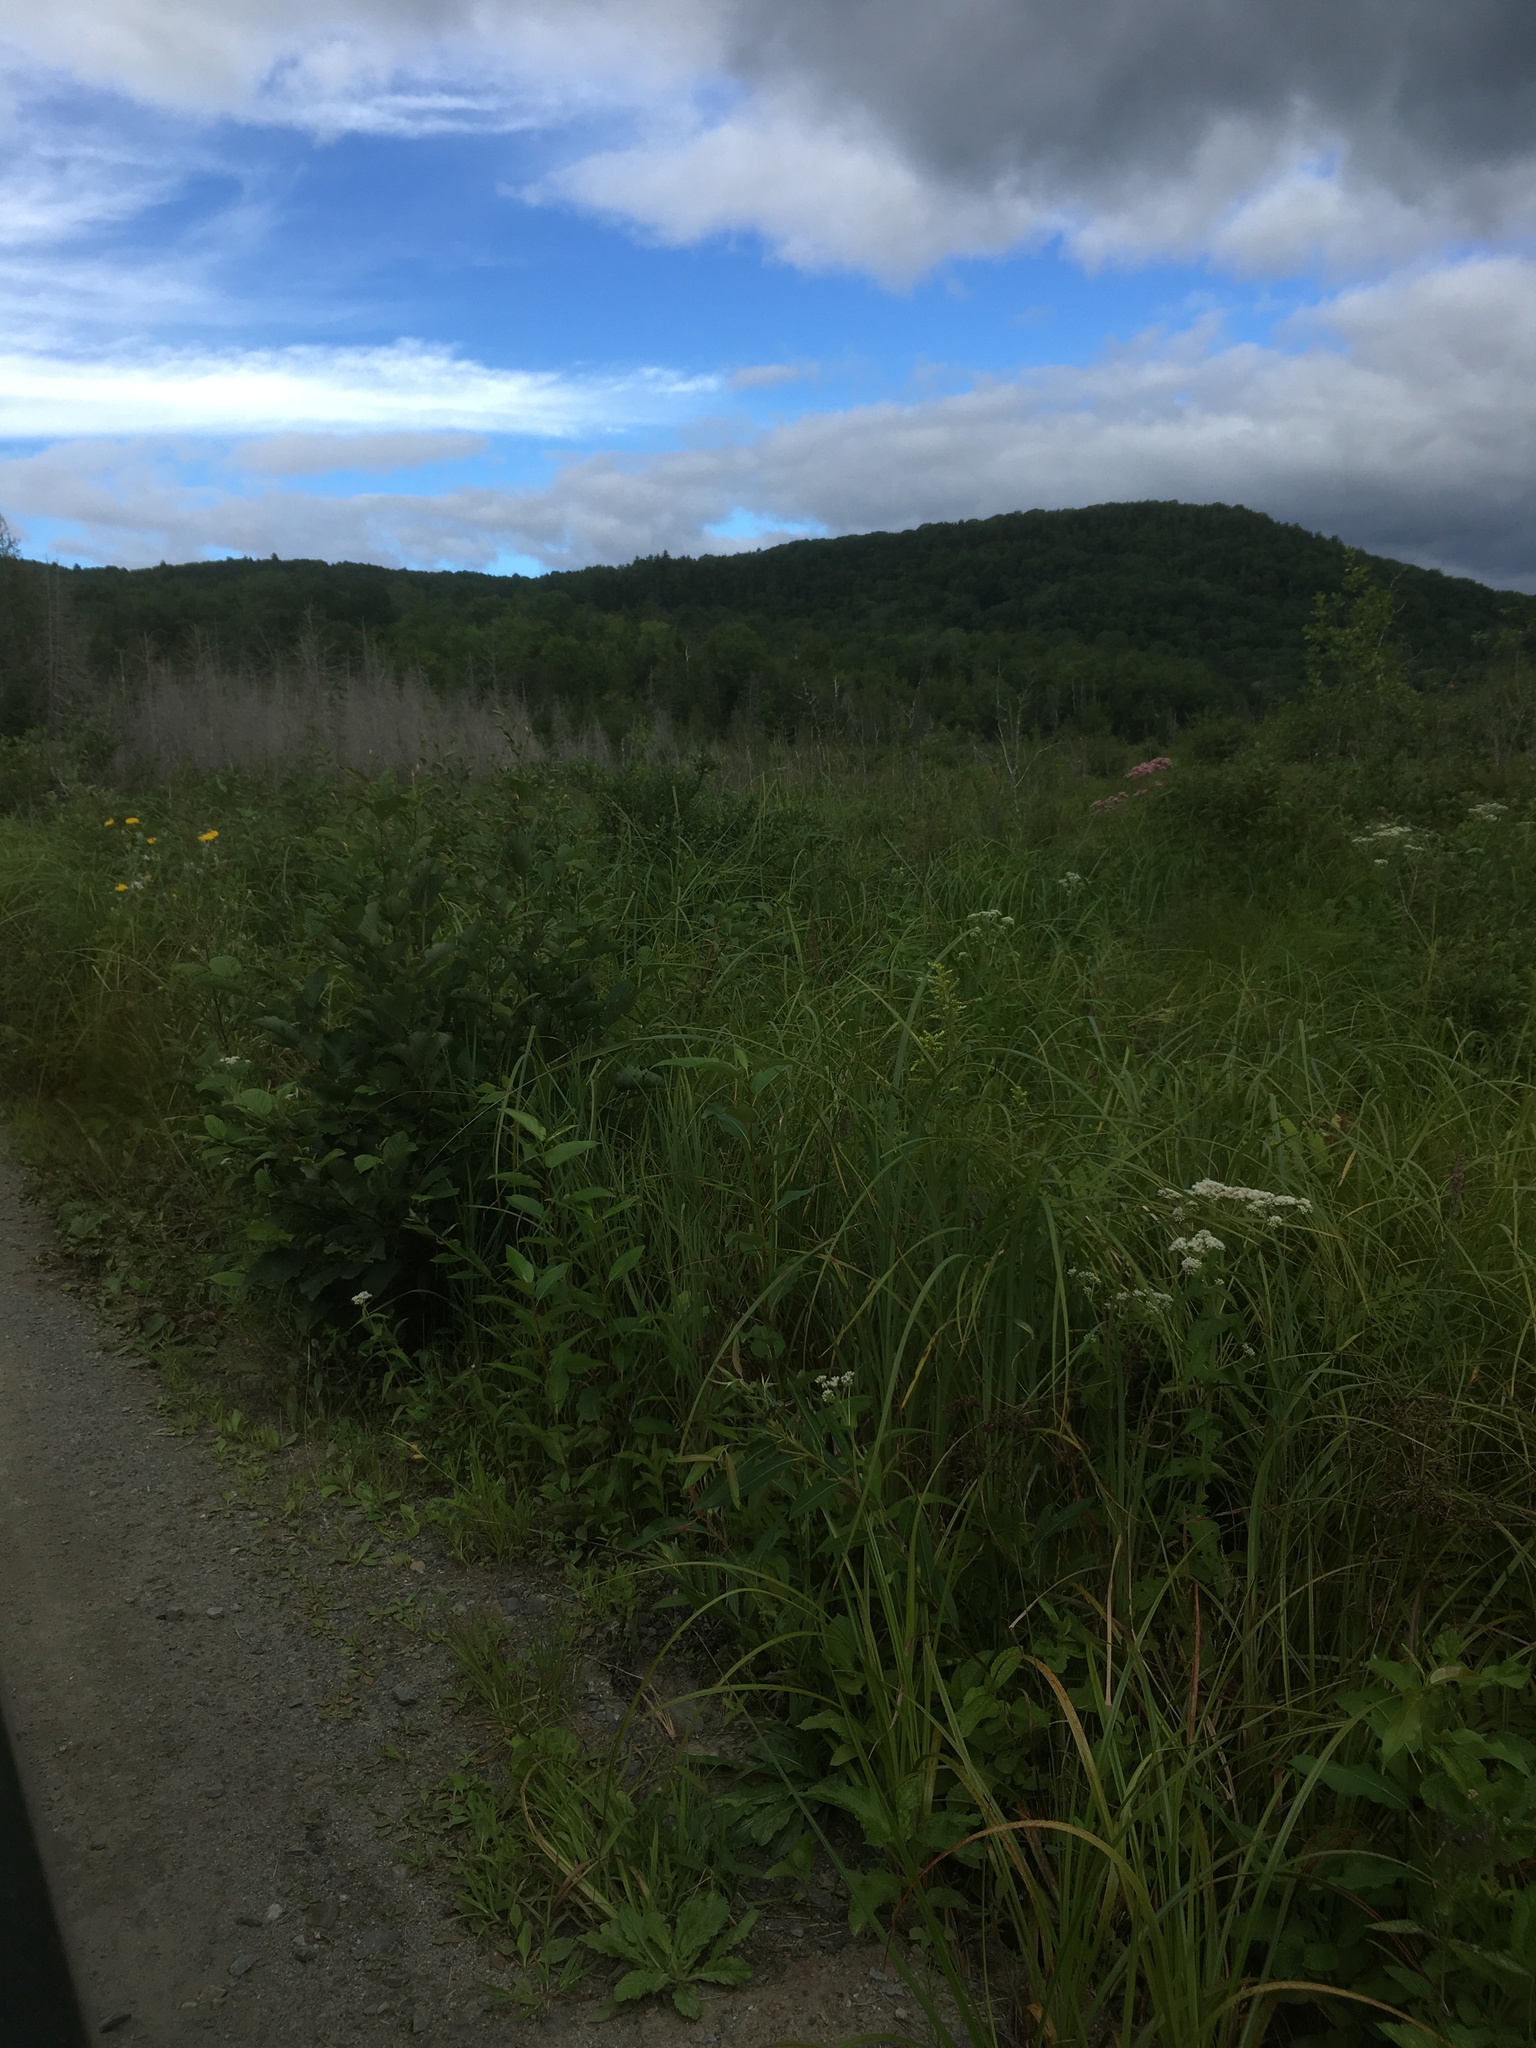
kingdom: Plantae
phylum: Tracheophyta
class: Magnoliopsida
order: Asterales
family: Asteraceae
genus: Eupatorium
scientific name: Eupatorium perfoliatum
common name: Boneset
